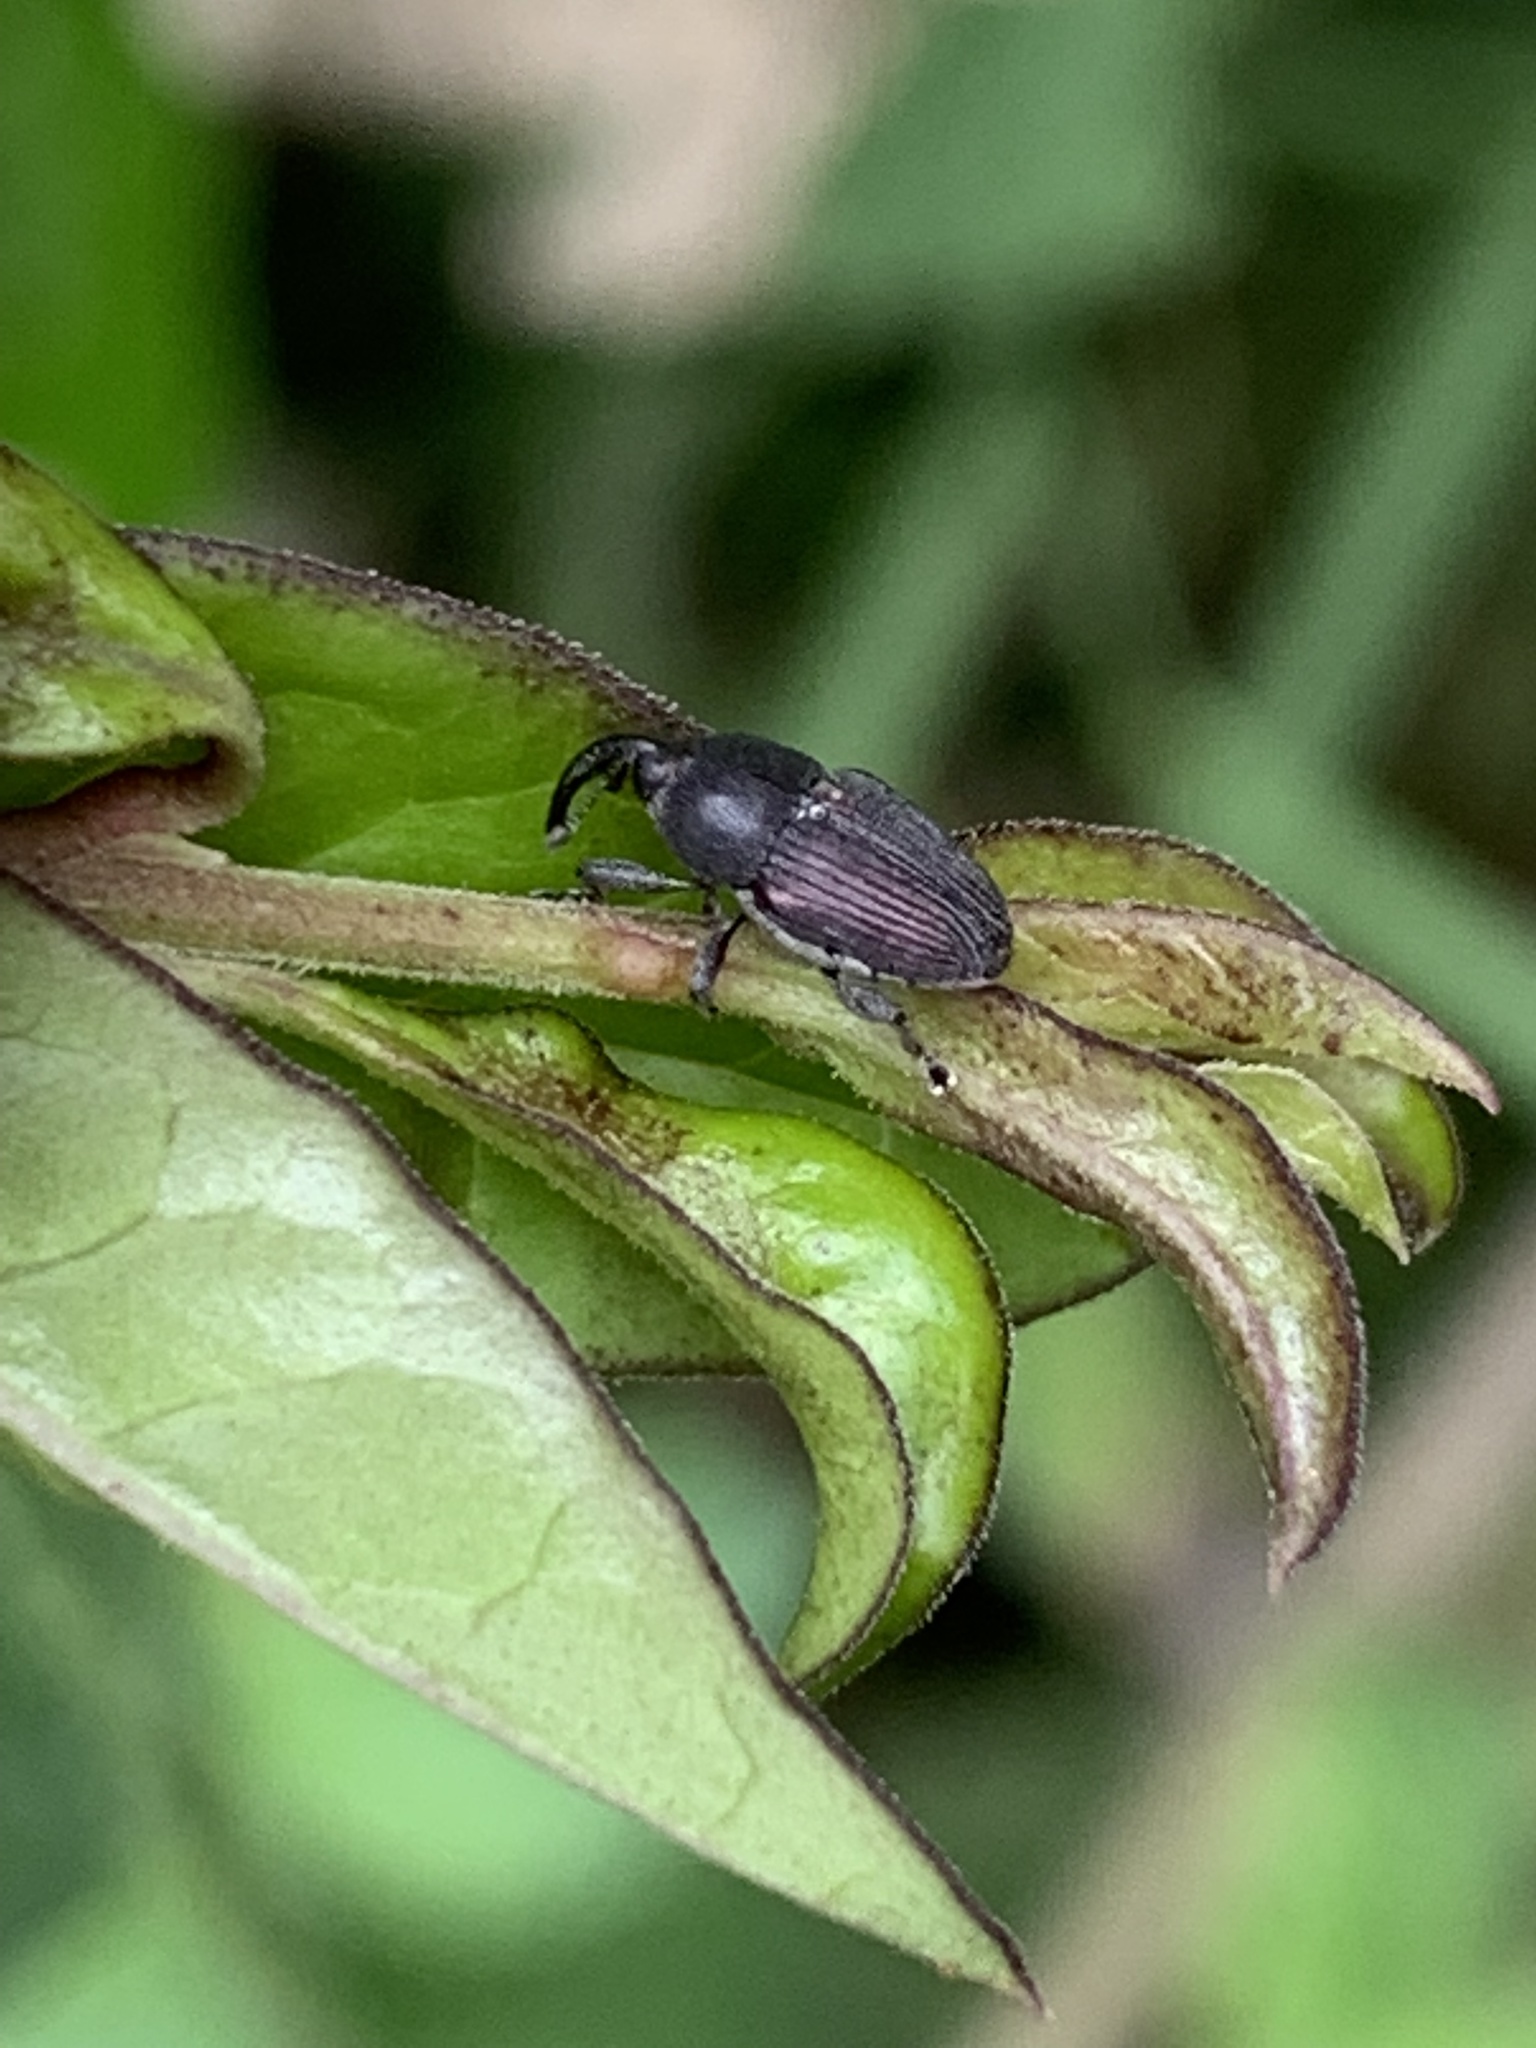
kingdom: Animalia
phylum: Arthropoda
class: Insecta
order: Coleoptera
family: Curculionidae
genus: Odontocorynus
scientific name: Odontocorynus salebrosus
